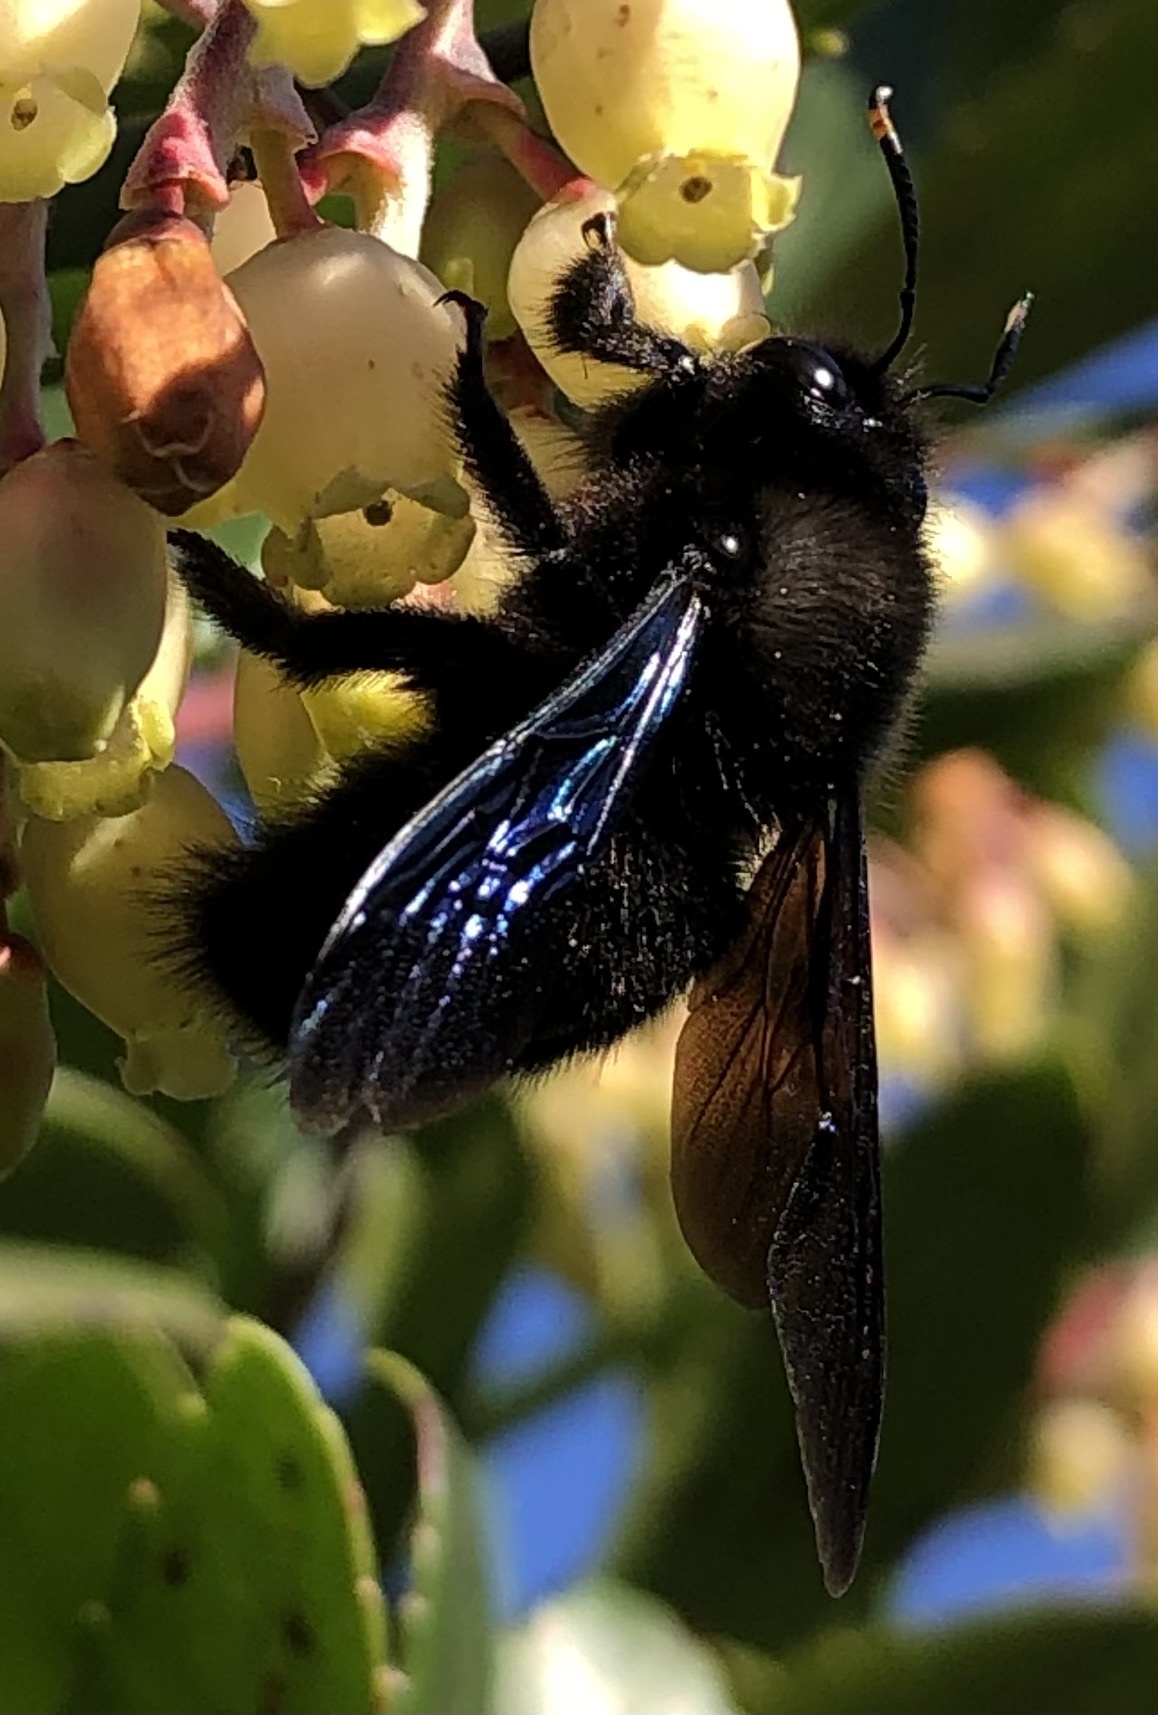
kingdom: Animalia
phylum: Arthropoda
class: Insecta
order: Hymenoptera
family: Apidae
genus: Xylocopa
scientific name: Xylocopa violacea
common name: Violet carpenter bee
